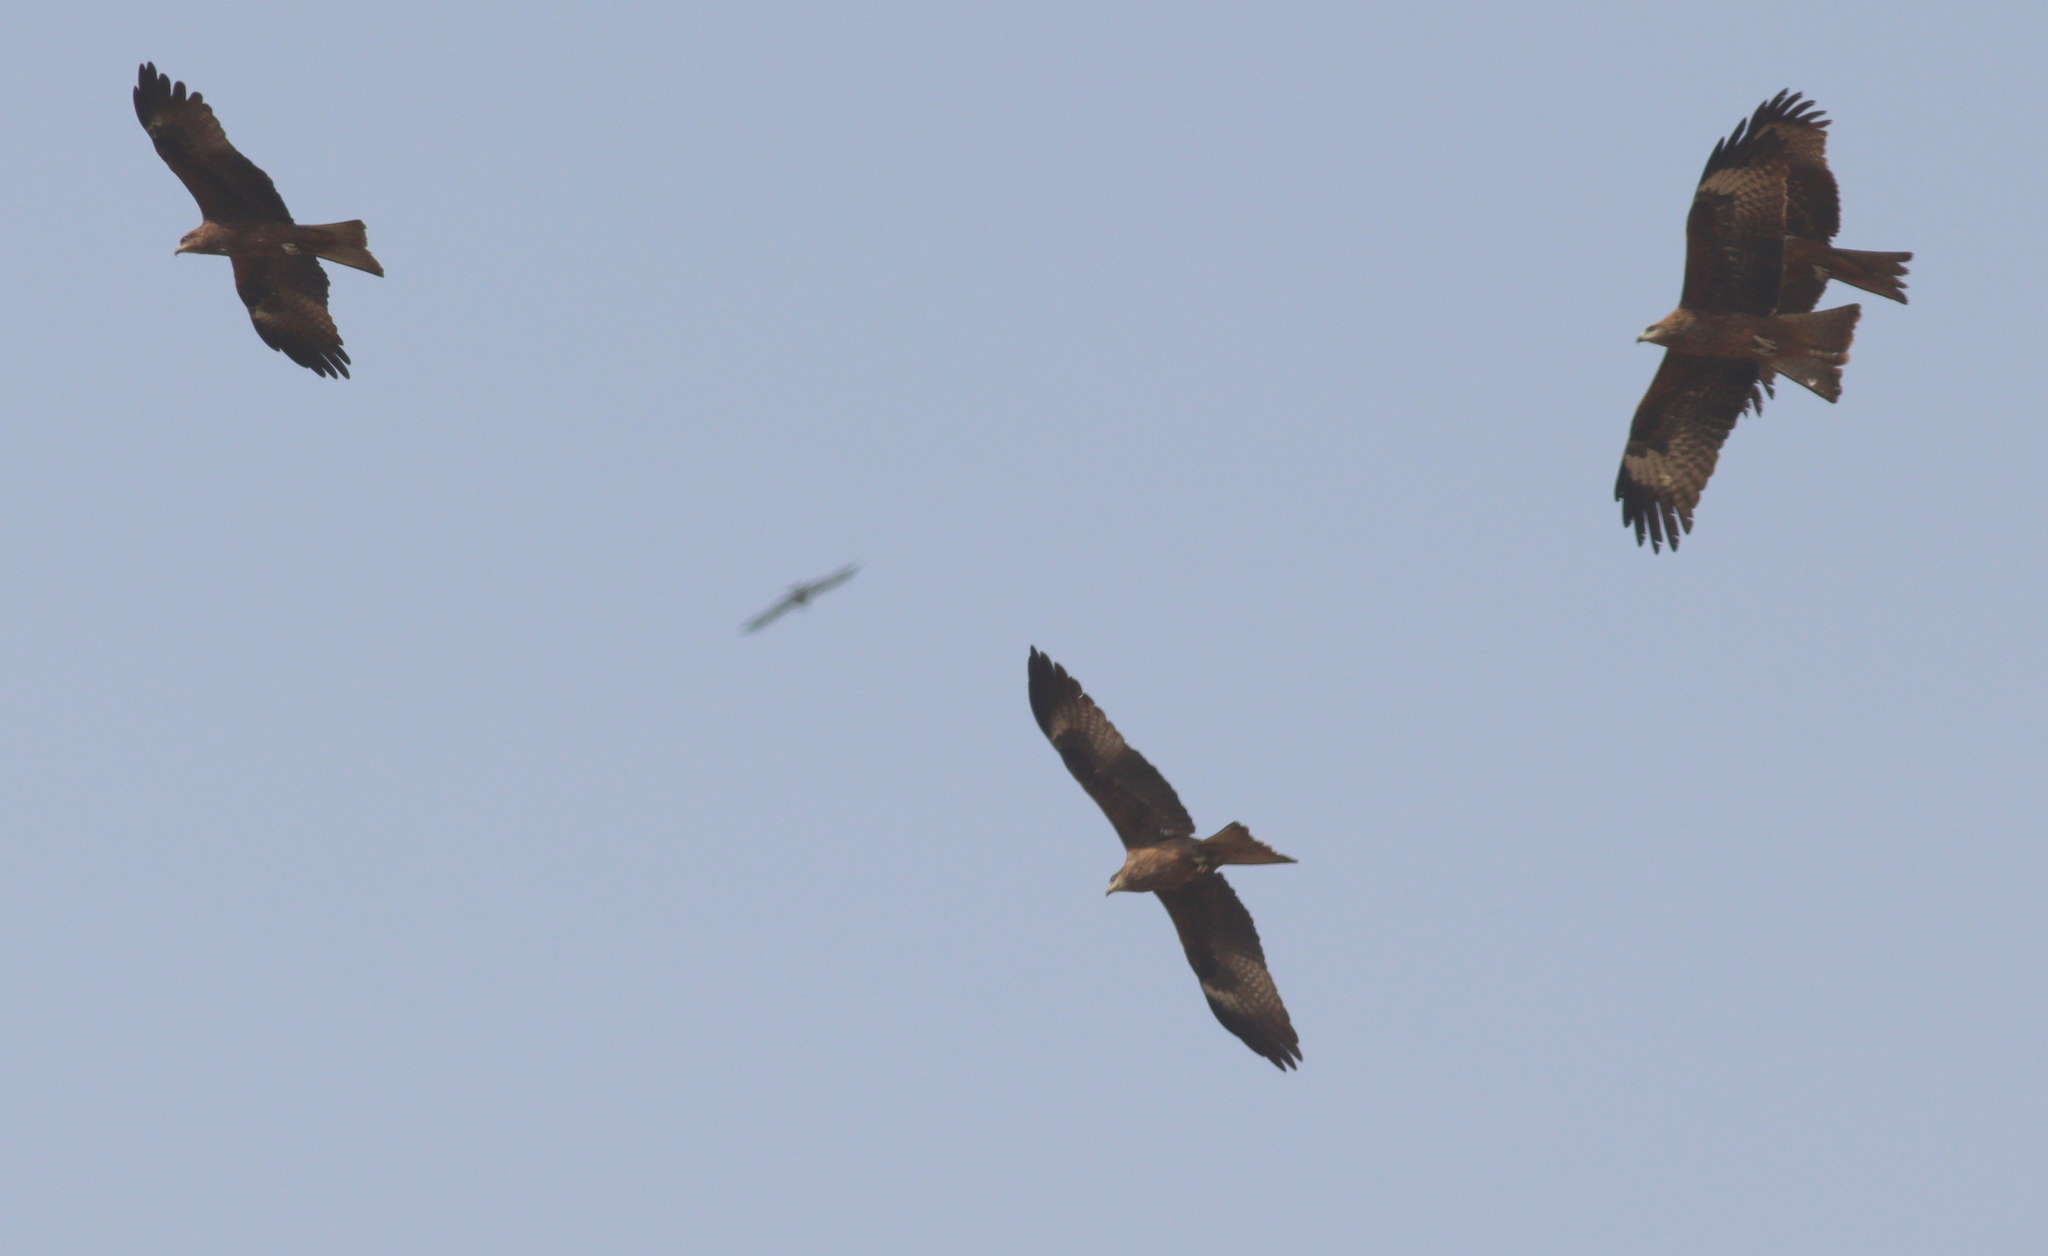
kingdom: Animalia
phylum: Chordata
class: Aves
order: Accipitriformes
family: Accipitridae
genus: Milvus
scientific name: Milvus migrans
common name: Black kite
